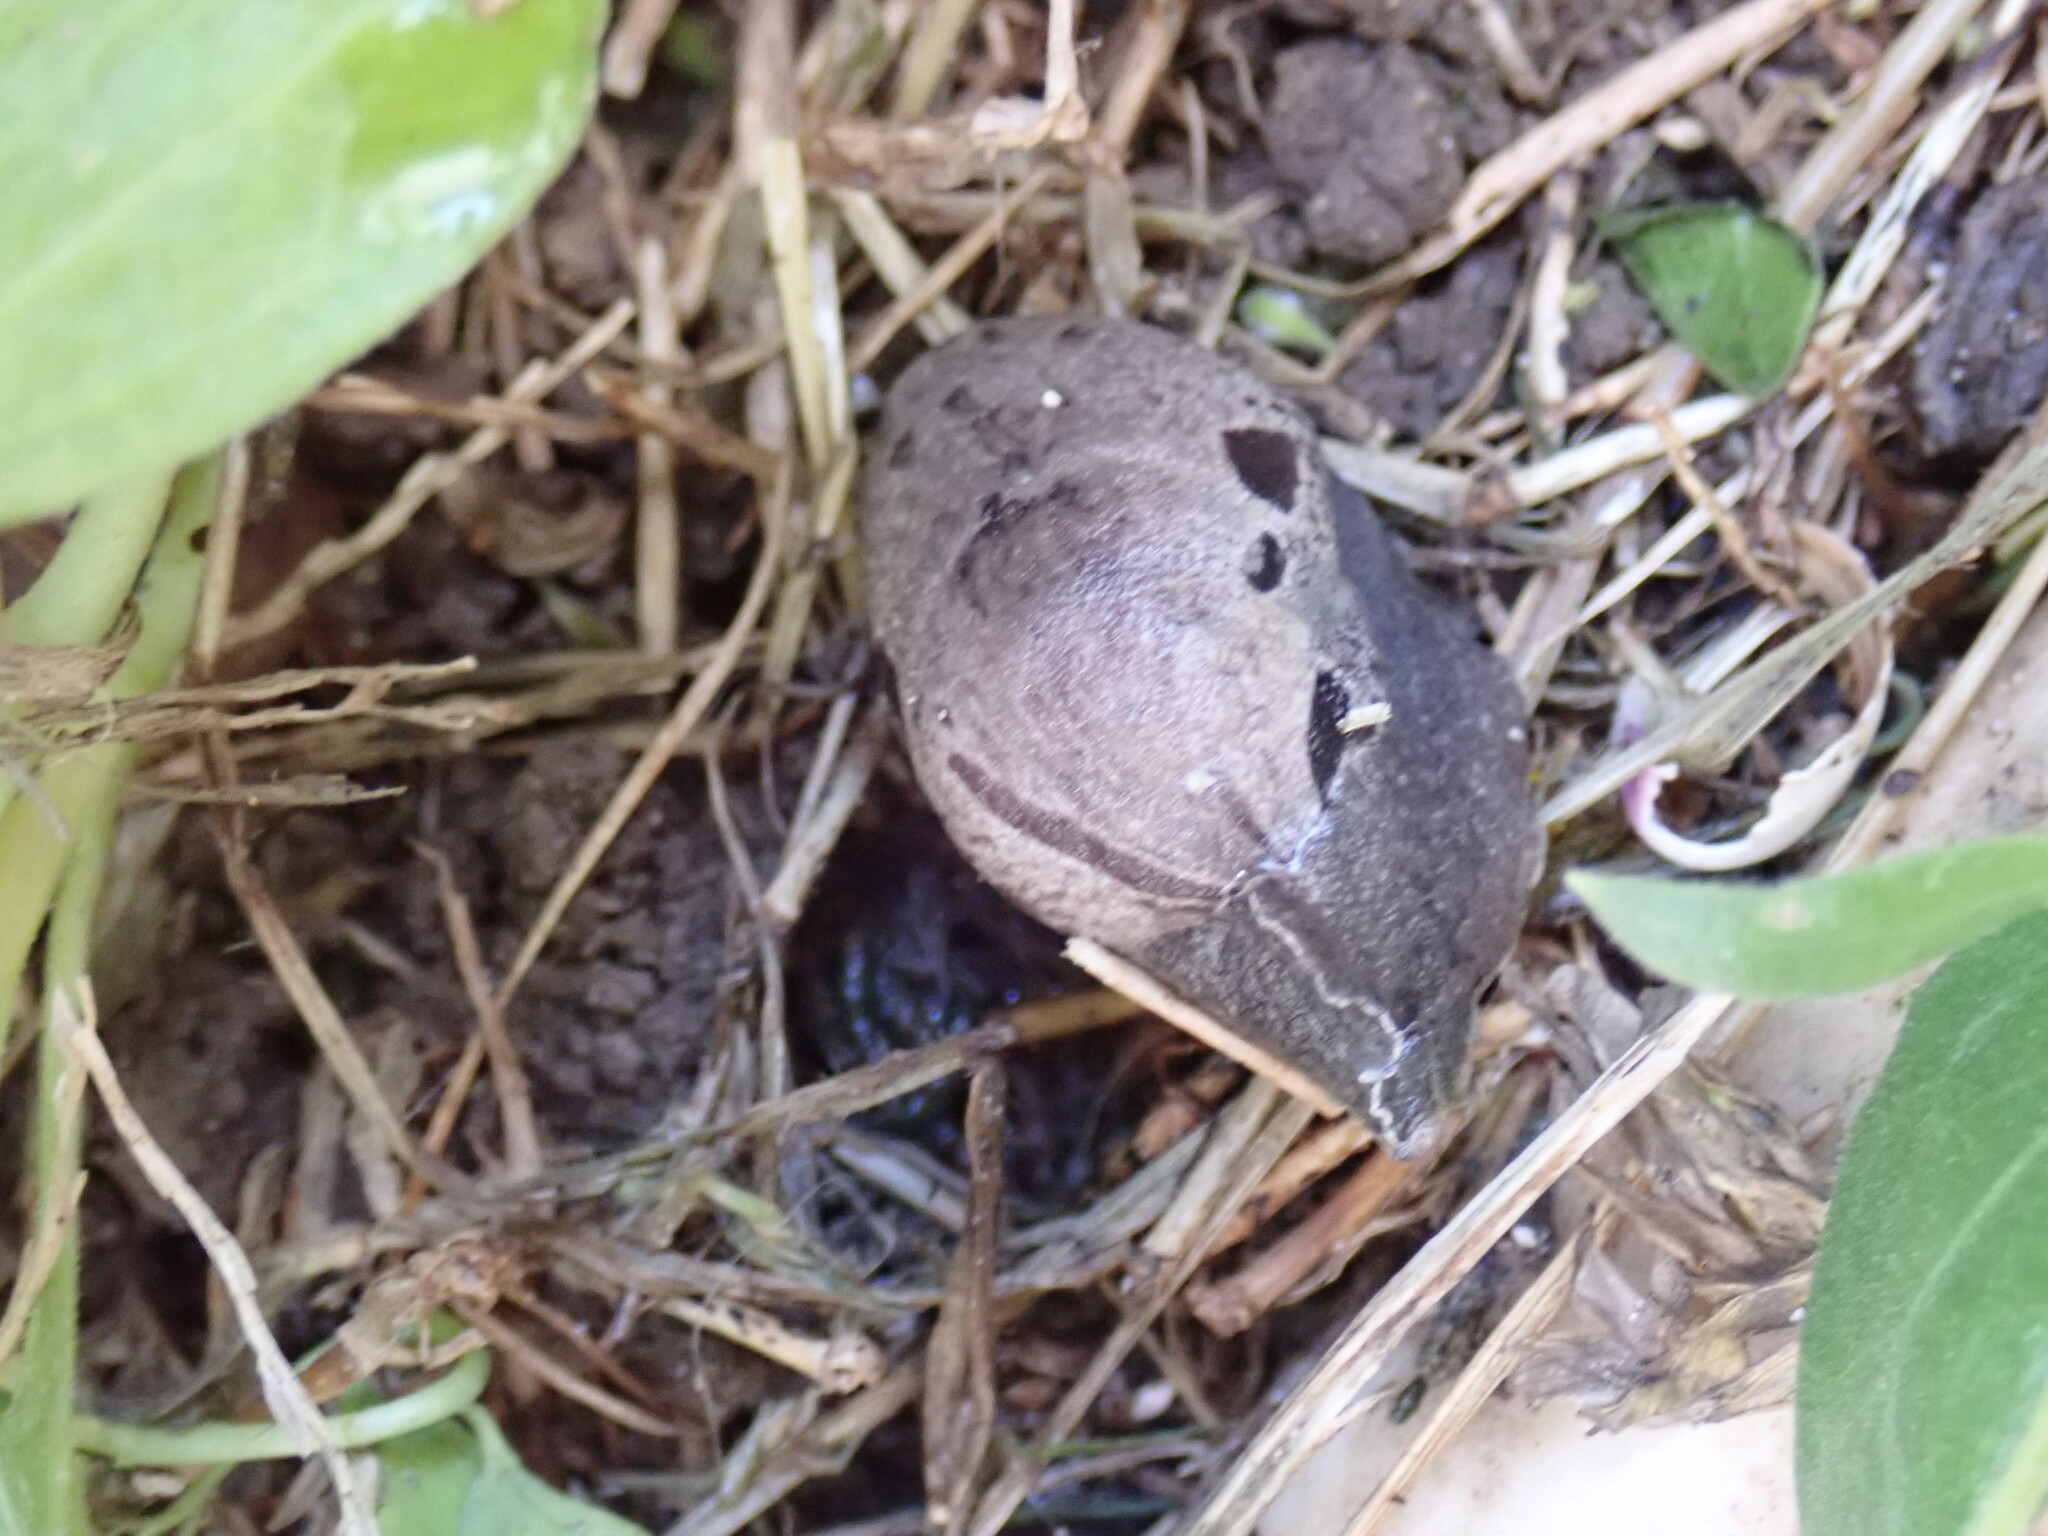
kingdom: Animalia
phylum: Mollusca
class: Gastropoda
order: Stylommatophora
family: Parmacellidae
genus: Drusia
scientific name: Drusia ibera
